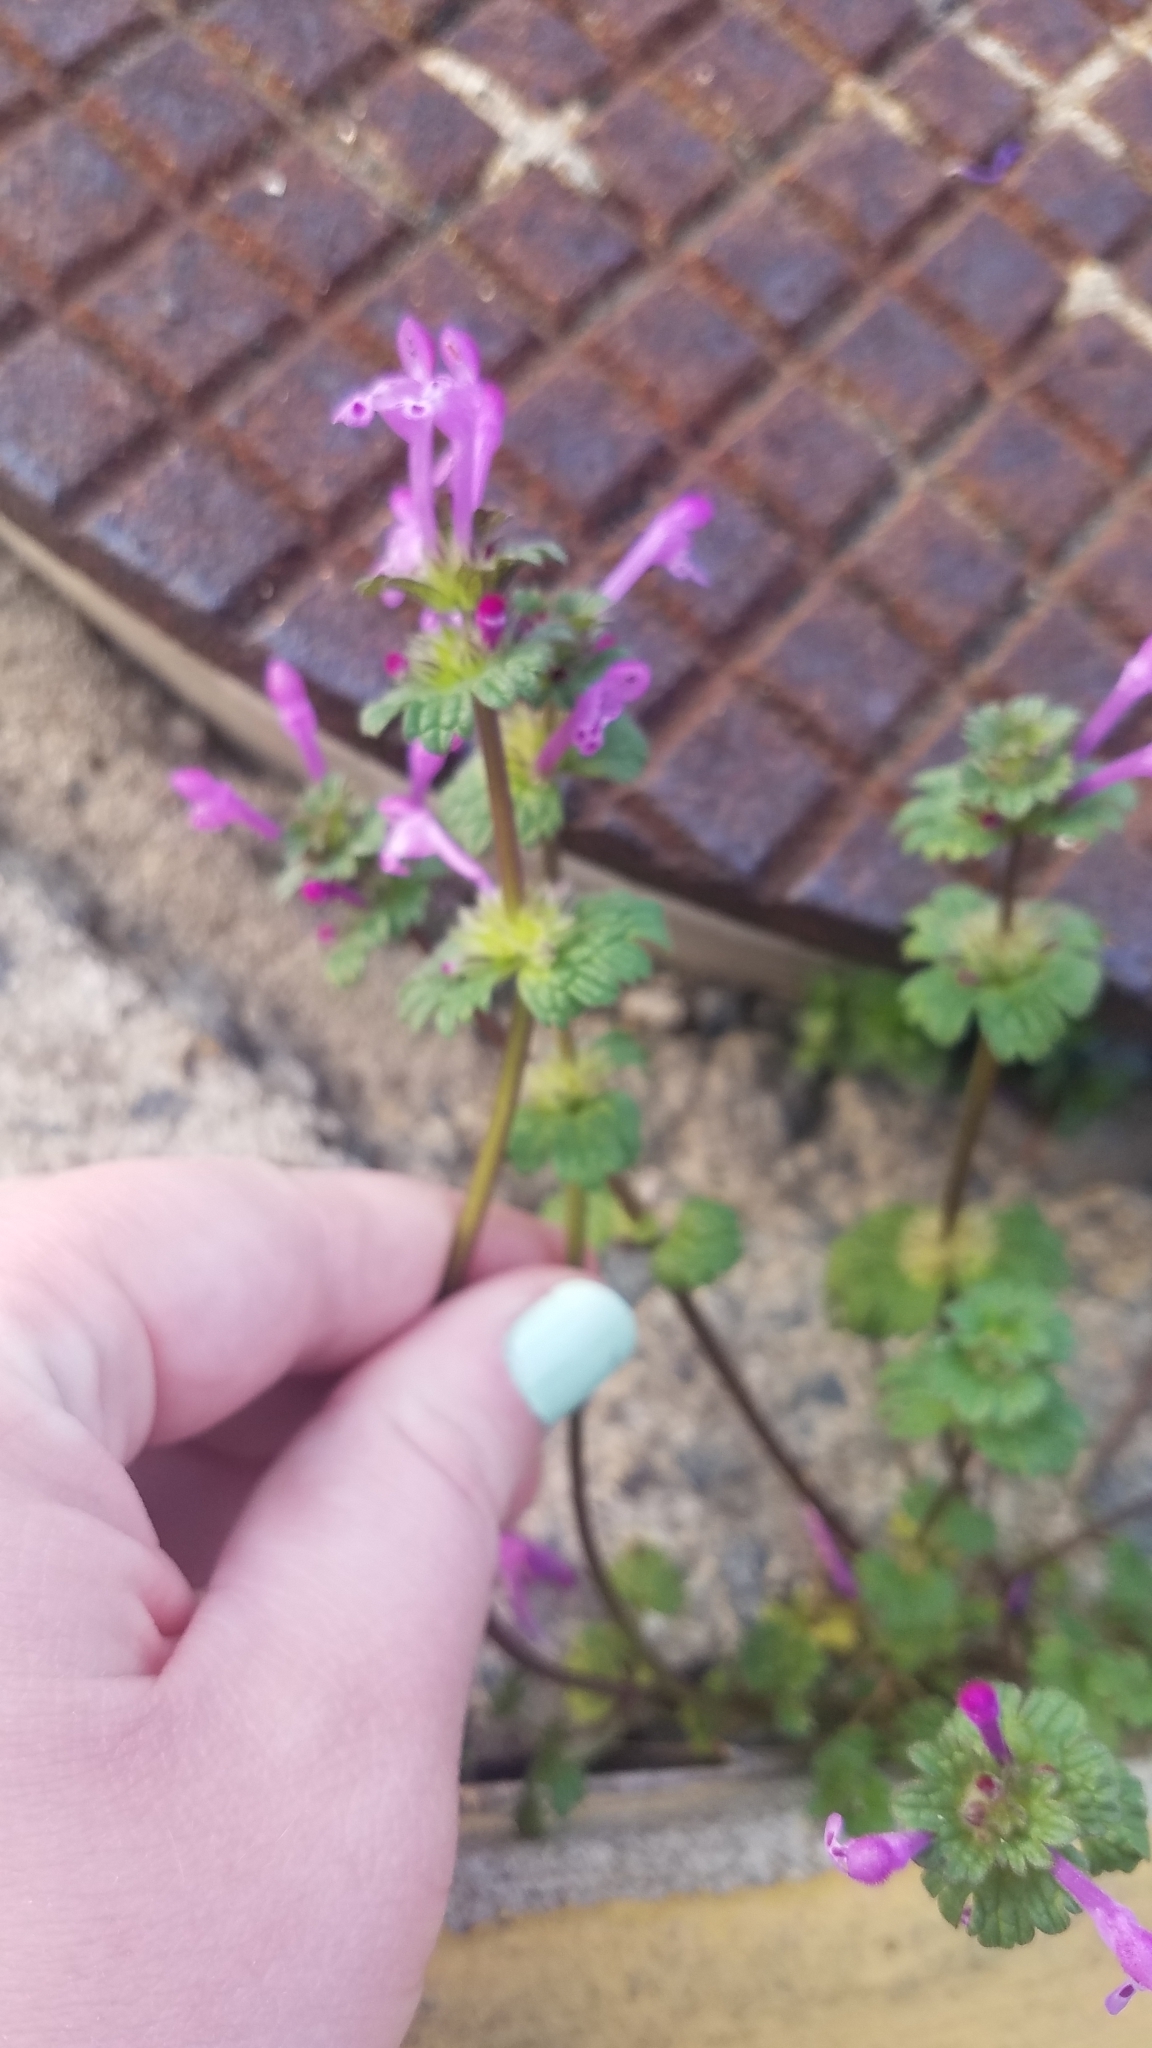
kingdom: Plantae
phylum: Tracheophyta
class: Magnoliopsida
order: Lamiales
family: Lamiaceae
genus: Lamium
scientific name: Lamium amplexicaule
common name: Henbit dead-nettle
